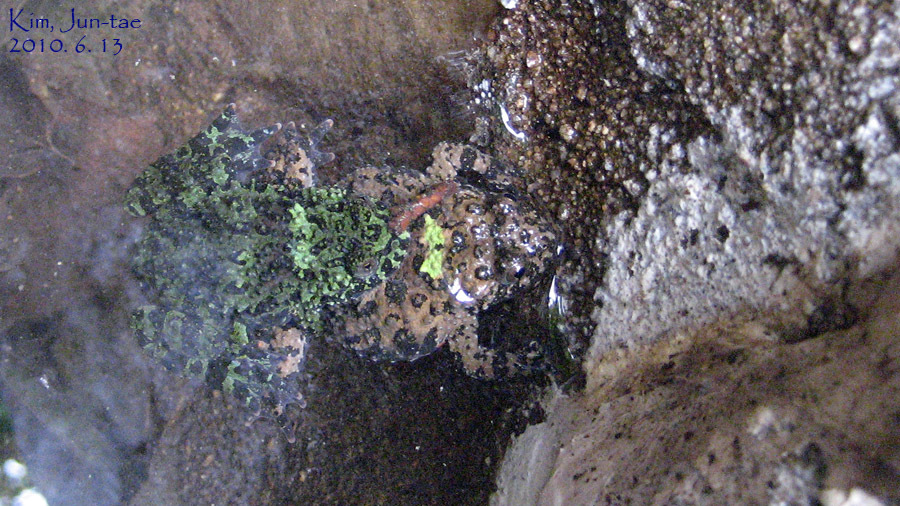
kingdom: Animalia
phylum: Chordata
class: Amphibia
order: Anura
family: Bombinatoridae
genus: Bombina
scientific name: Bombina orientalis
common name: Oriental firebelly toad
